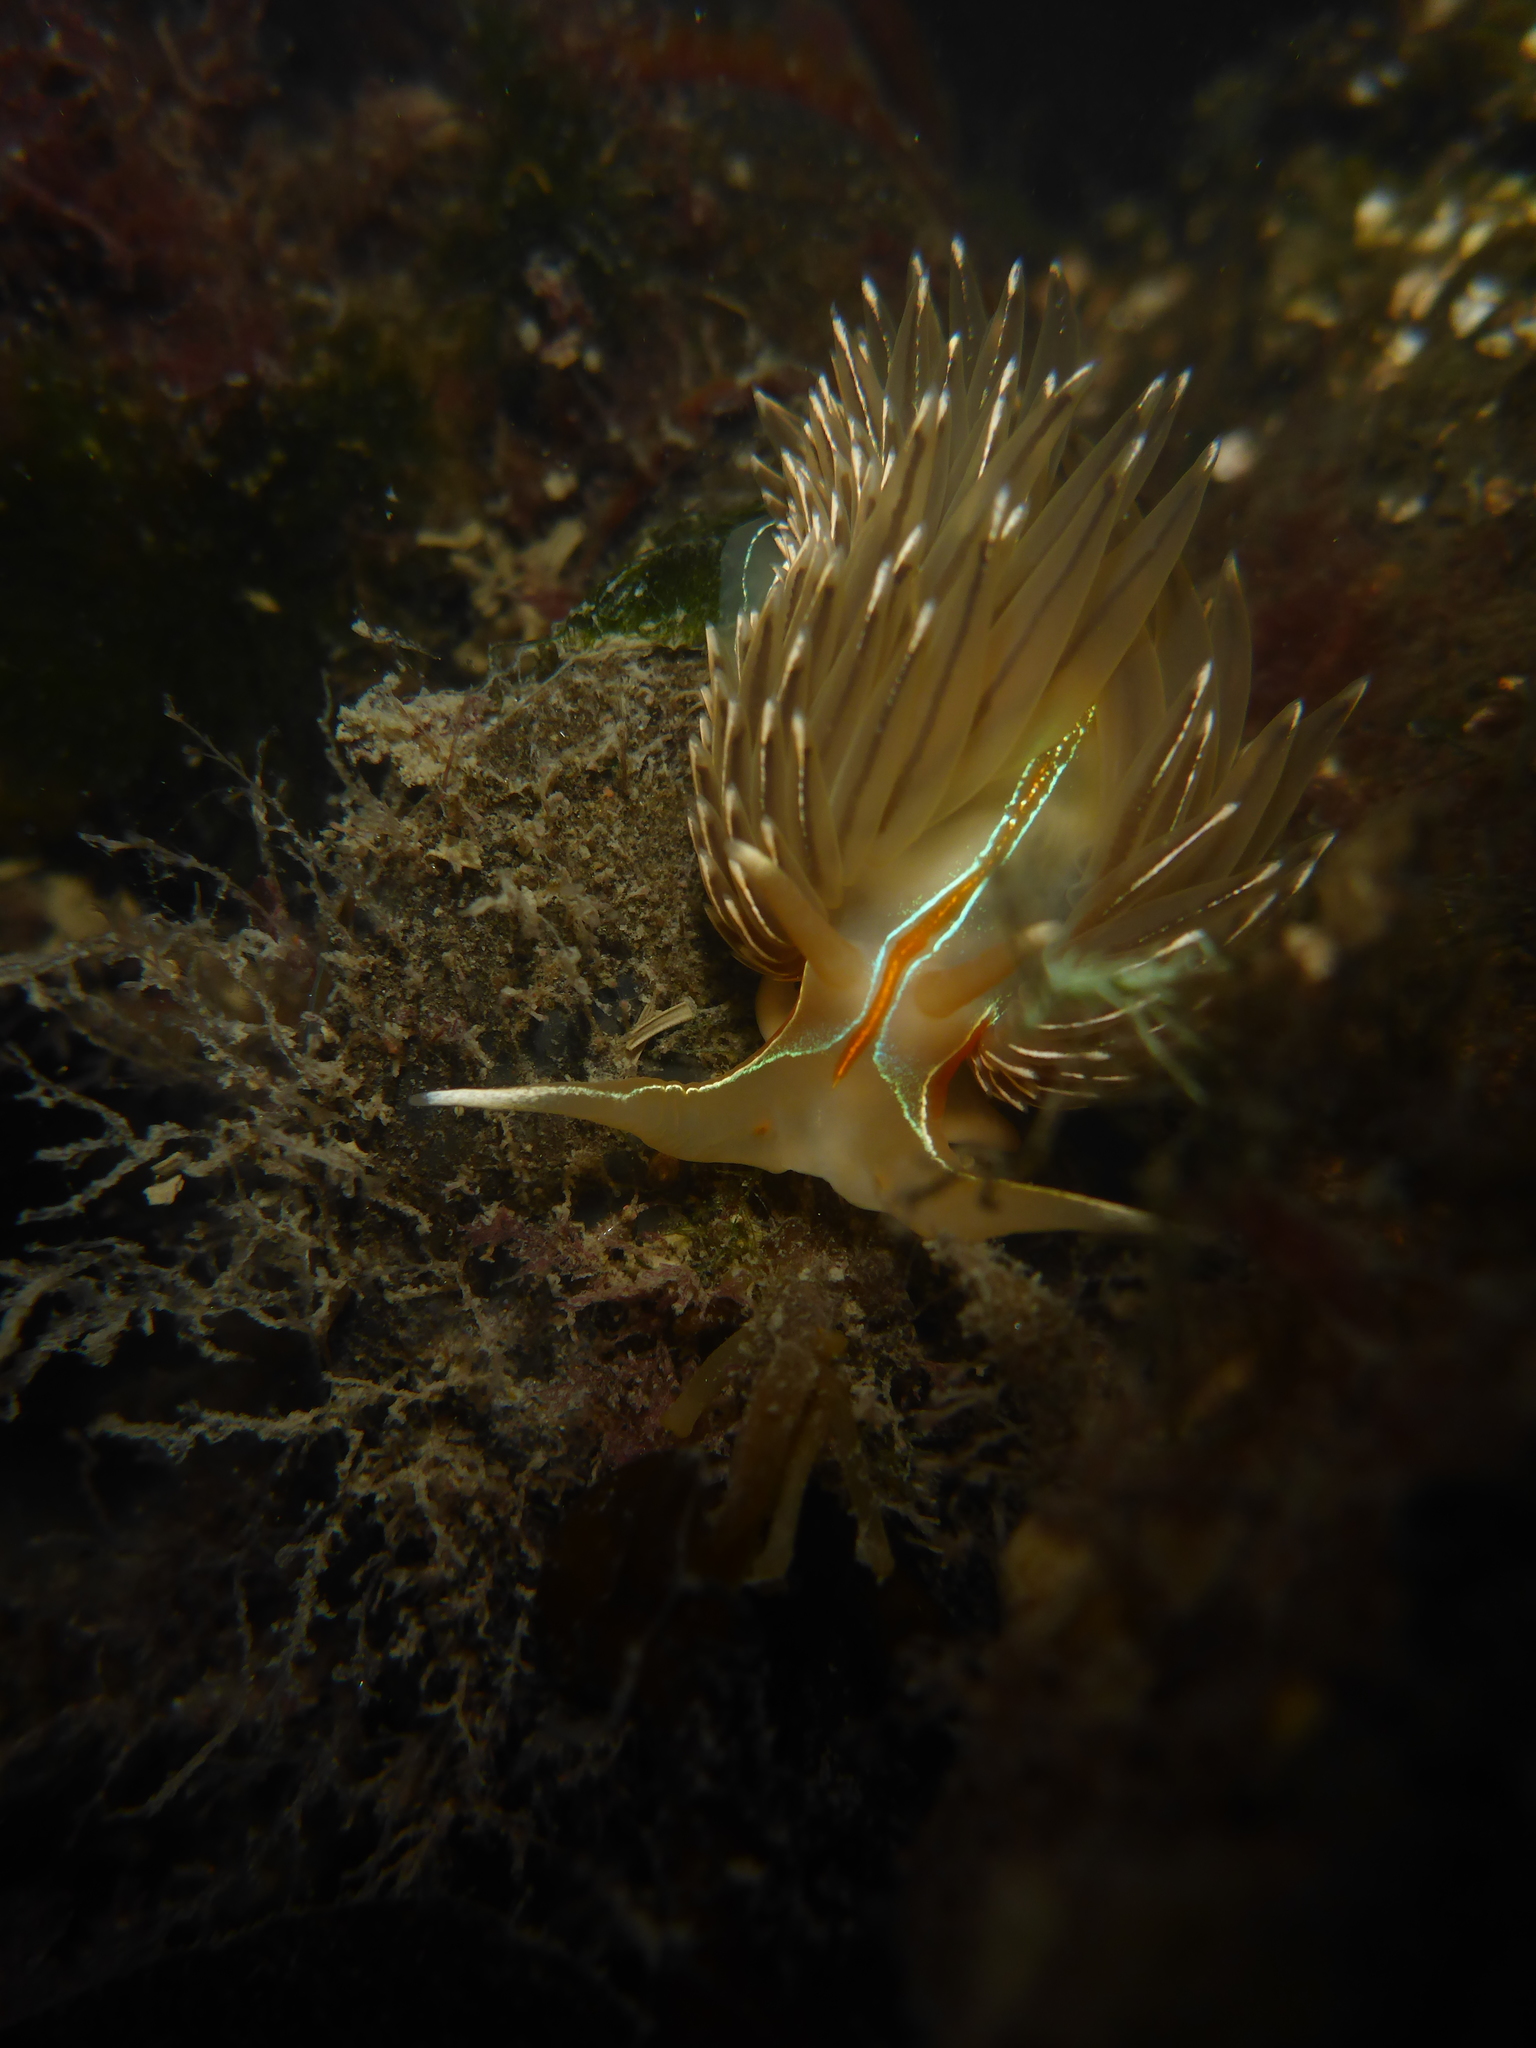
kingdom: Animalia
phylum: Mollusca
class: Gastropoda
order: Nudibranchia
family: Myrrhinidae
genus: Hermissenda
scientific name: Hermissenda crassicornis
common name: Hermissenda
